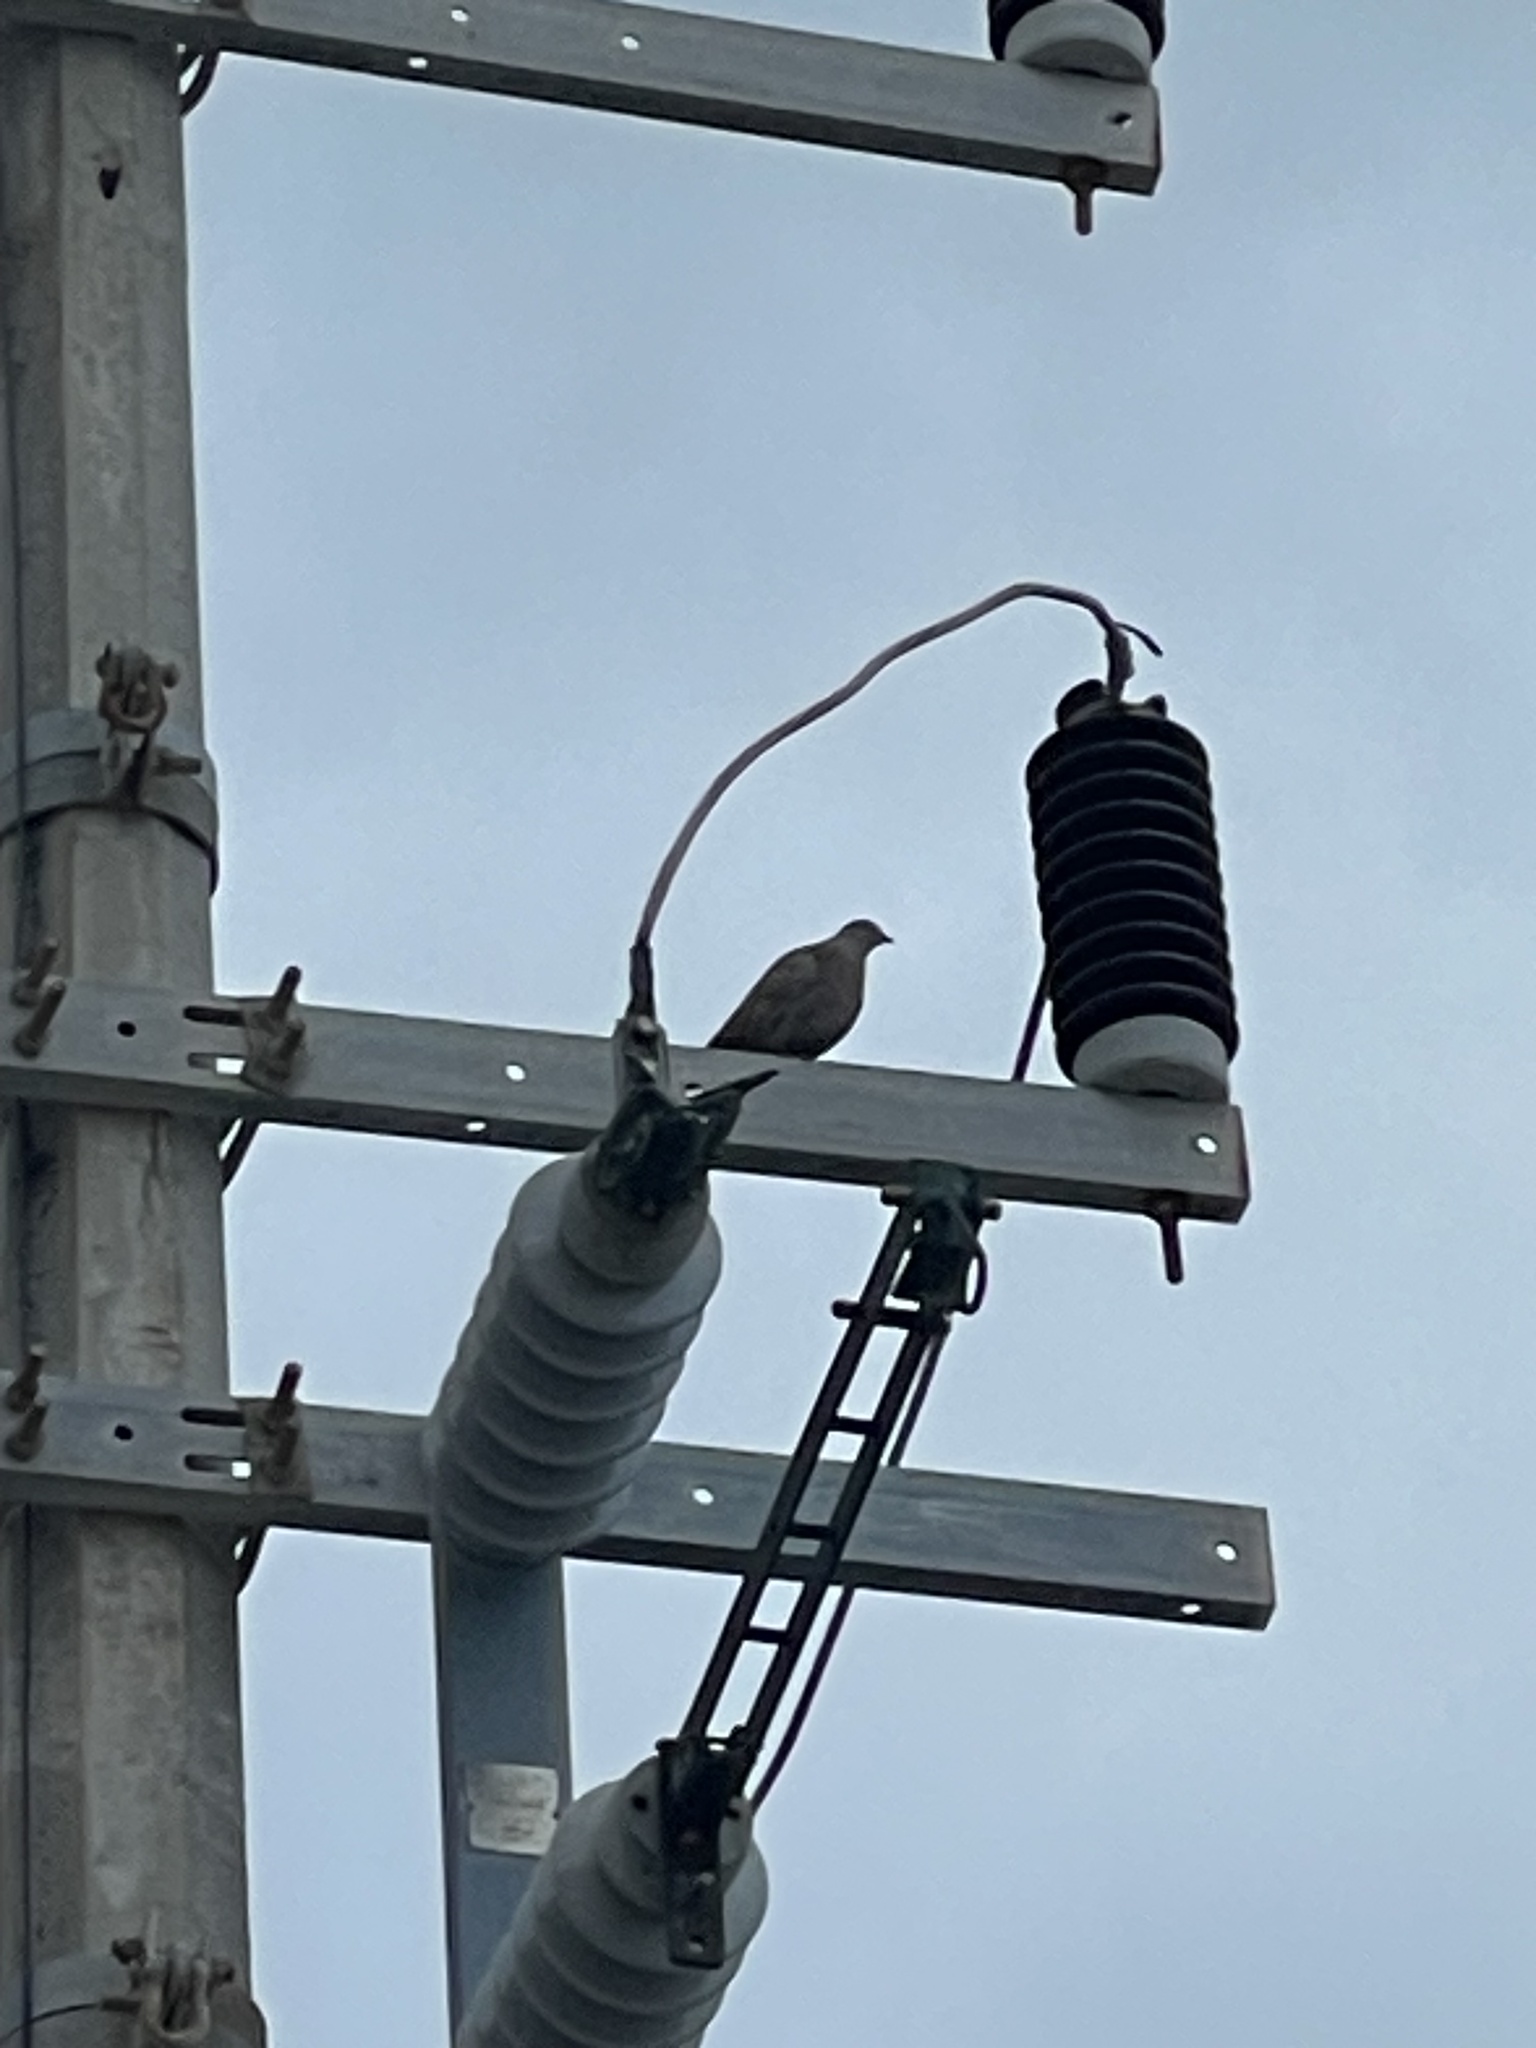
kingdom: Animalia
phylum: Chordata
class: Aves
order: Columbiformes
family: Columbidae
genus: Streptopelia
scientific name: Streptopelia decaocto
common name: Eurasian collared dove
